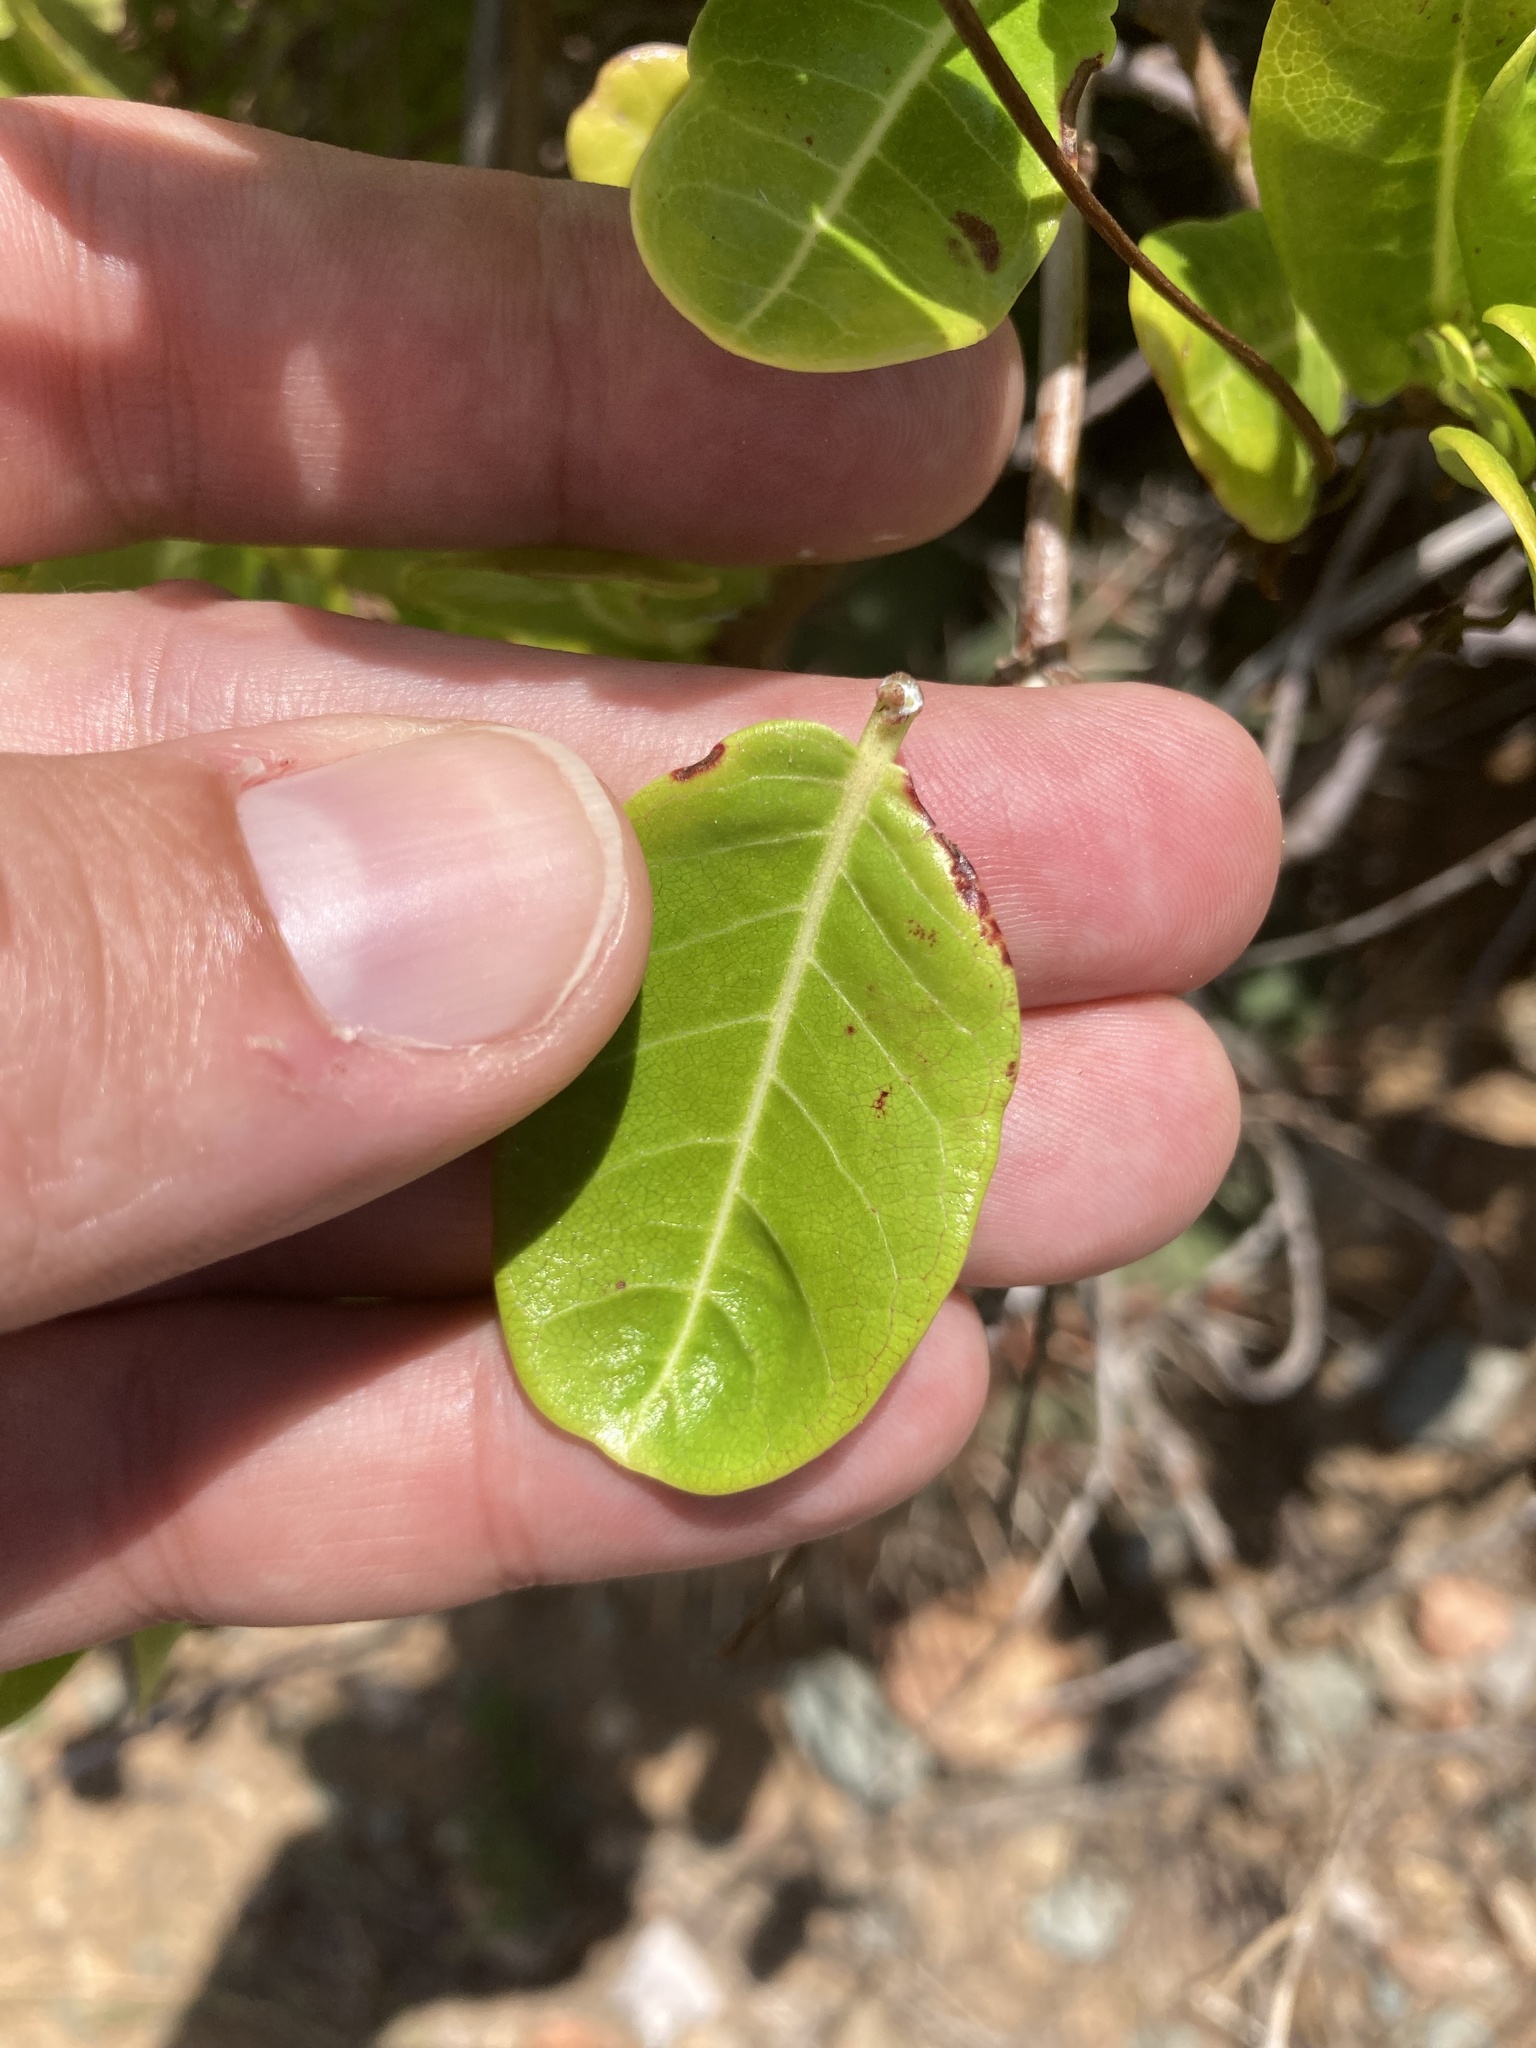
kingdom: Plantae
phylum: Tracheophyta
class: Magnoliopsida
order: Gentianales
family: Apocynaceae
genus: Pentalinon
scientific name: Pentalinon luteum
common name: Licebush
